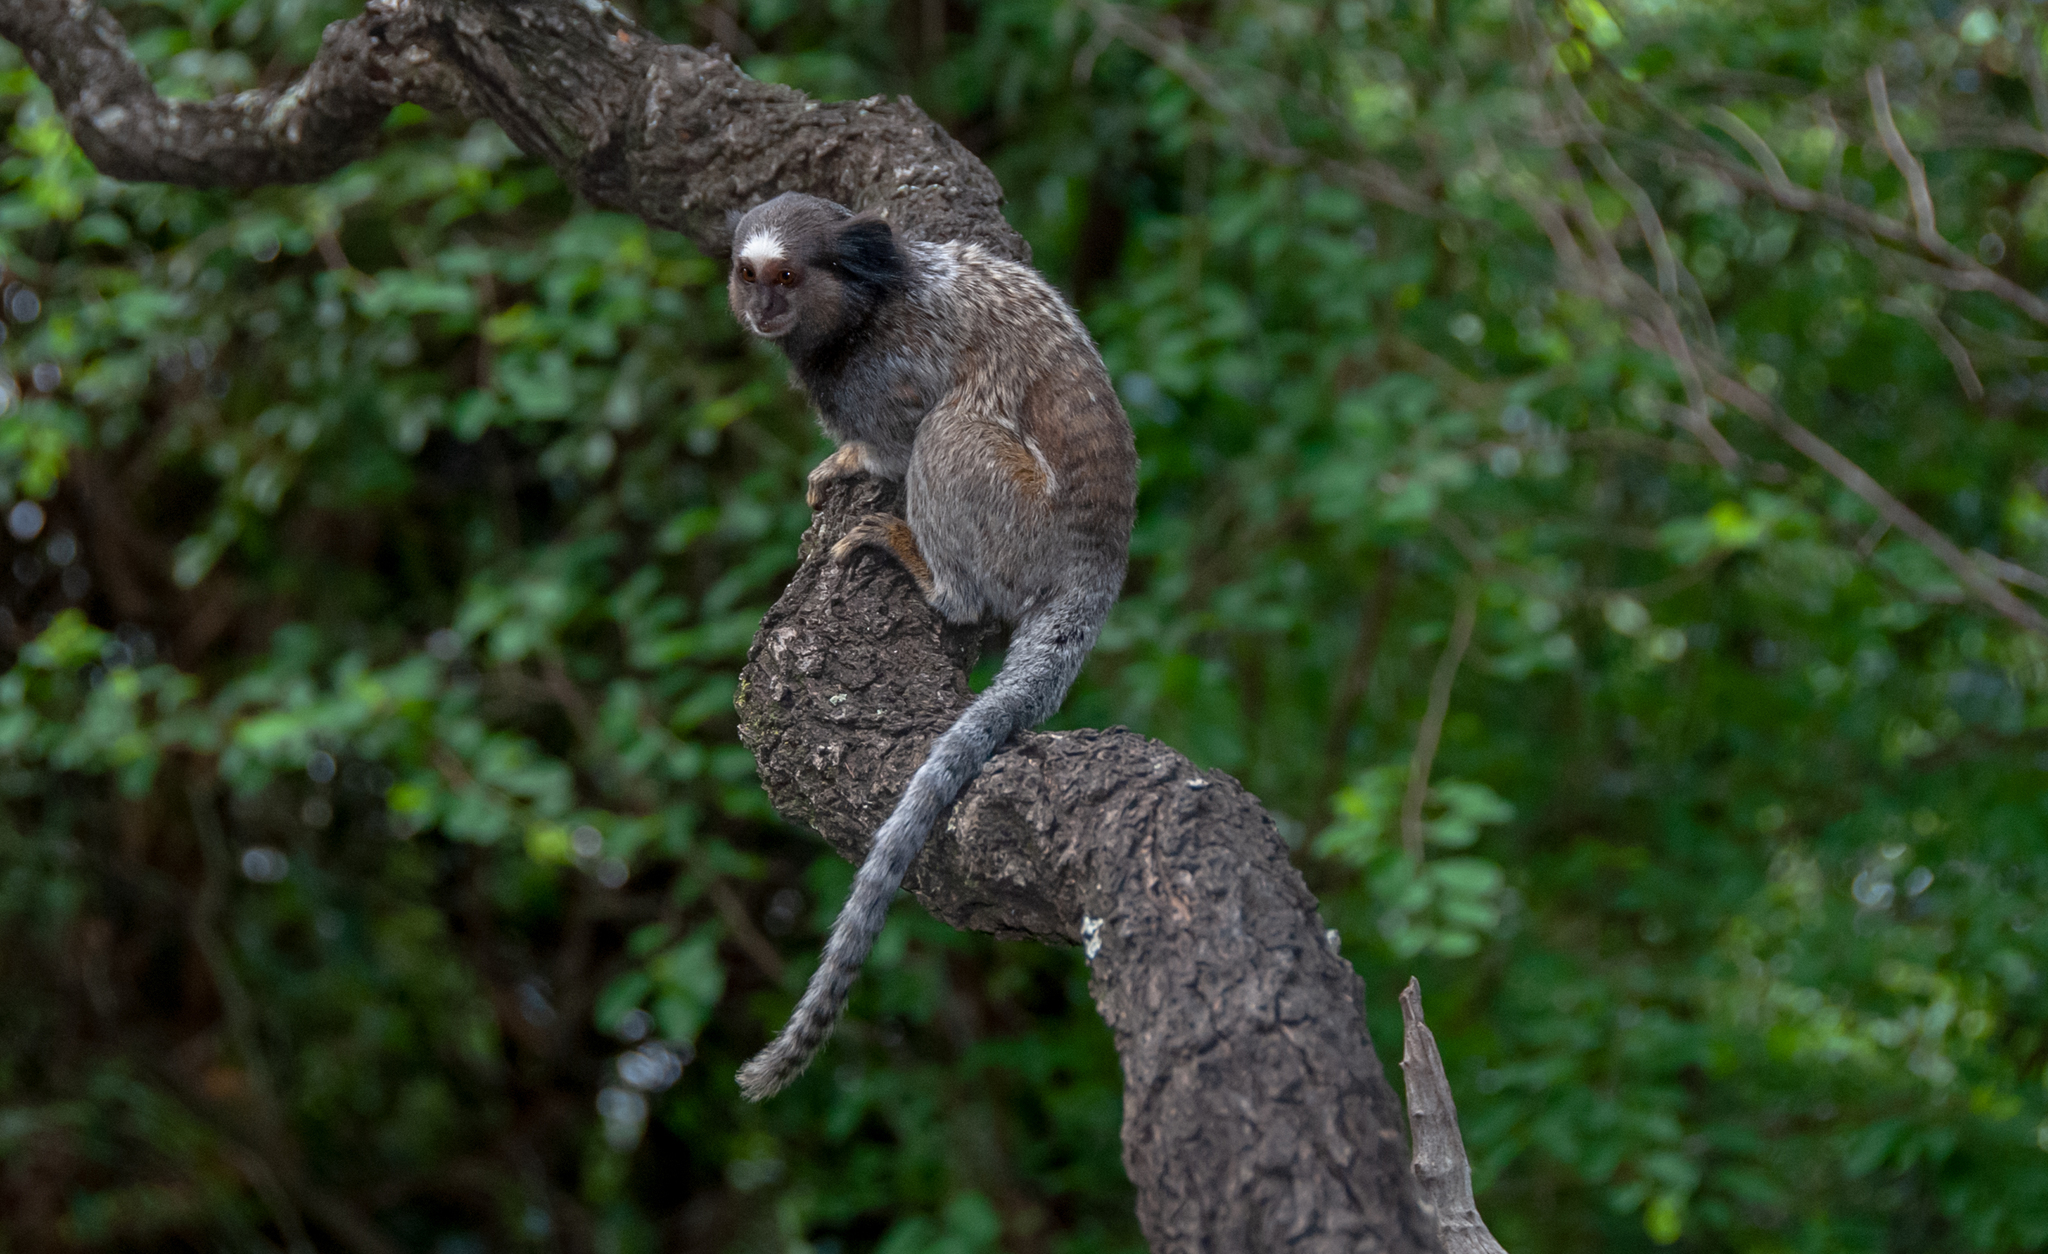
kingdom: Animalia
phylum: Chordata
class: Mammalia
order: Primates
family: Callitrichidae
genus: Callithrix
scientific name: Callithrix penicillata
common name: Black-tufted marmoset
